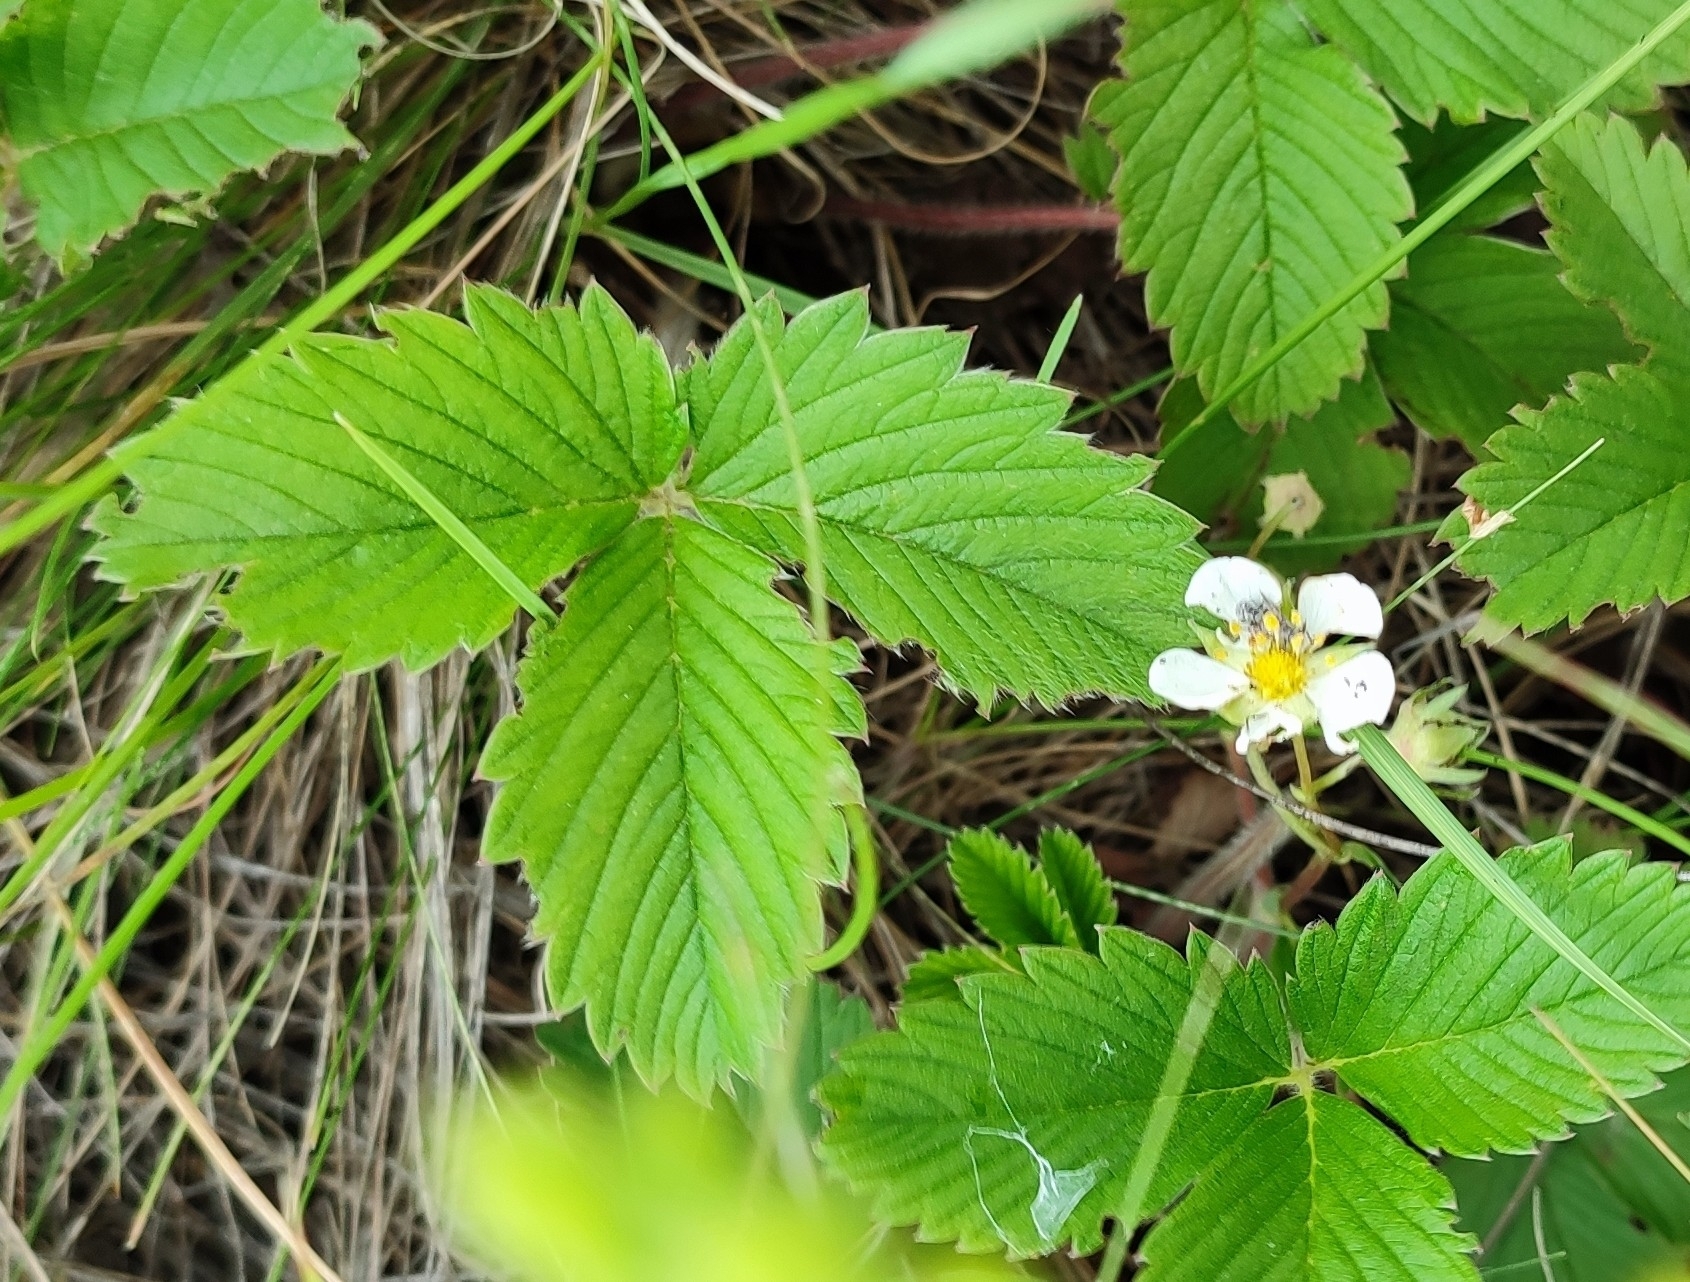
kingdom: Plantae
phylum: Tracheophyta
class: Magnoliopsida
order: Rosales
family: Rosaceae
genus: Fragaria
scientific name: Fragaria viridis
